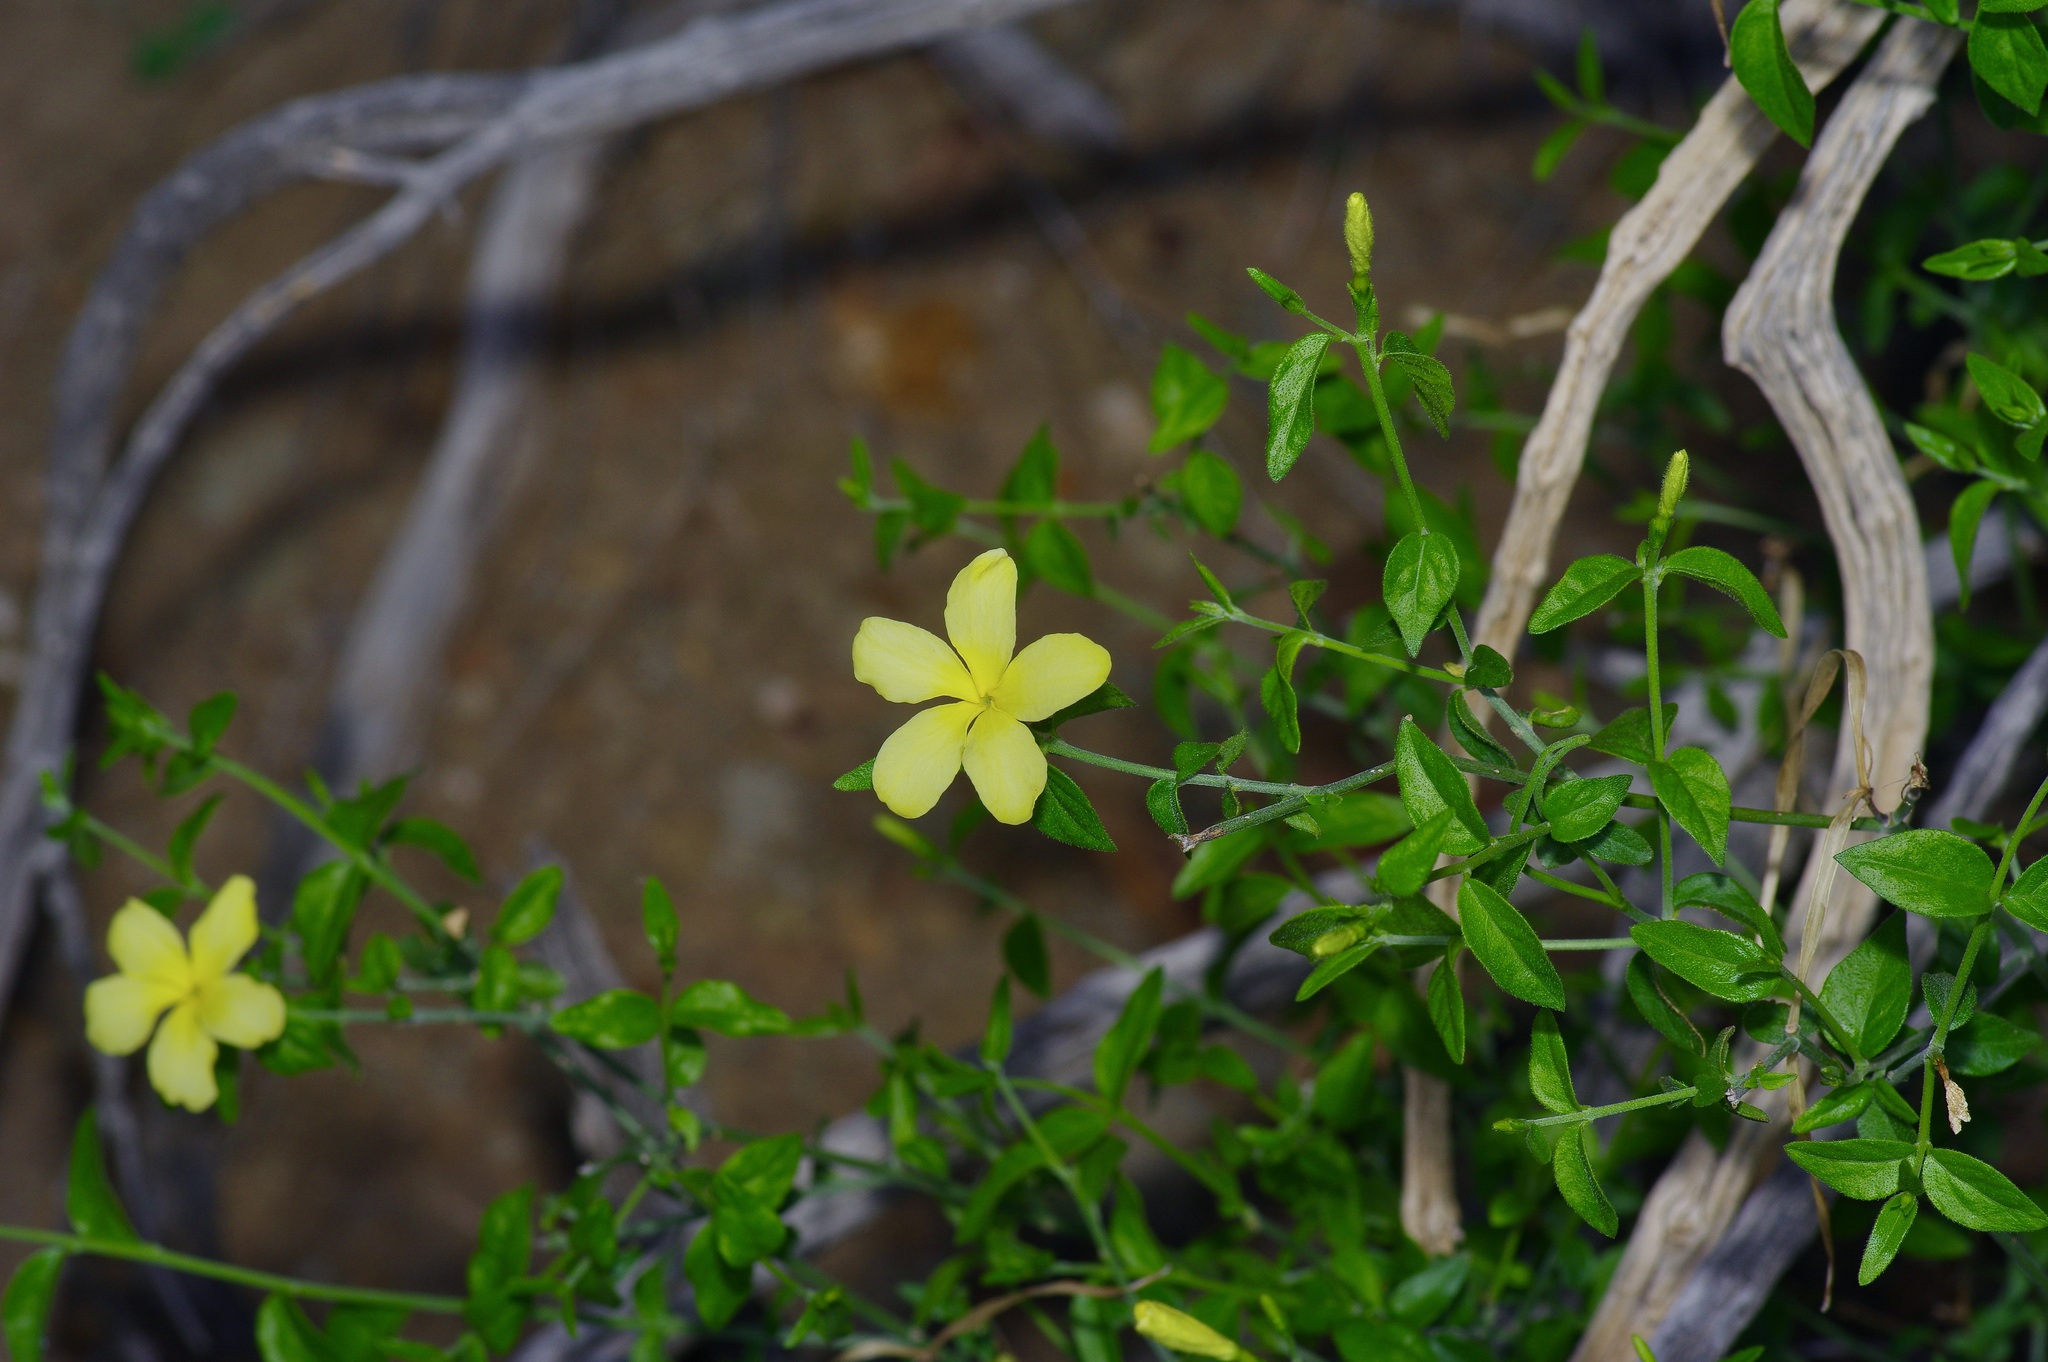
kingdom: Plantae
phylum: Tracheophyta
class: Magnoliopsida
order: Gentianales
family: Apocynaceae
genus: Haplophyton
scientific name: Haplophyton crooksii
